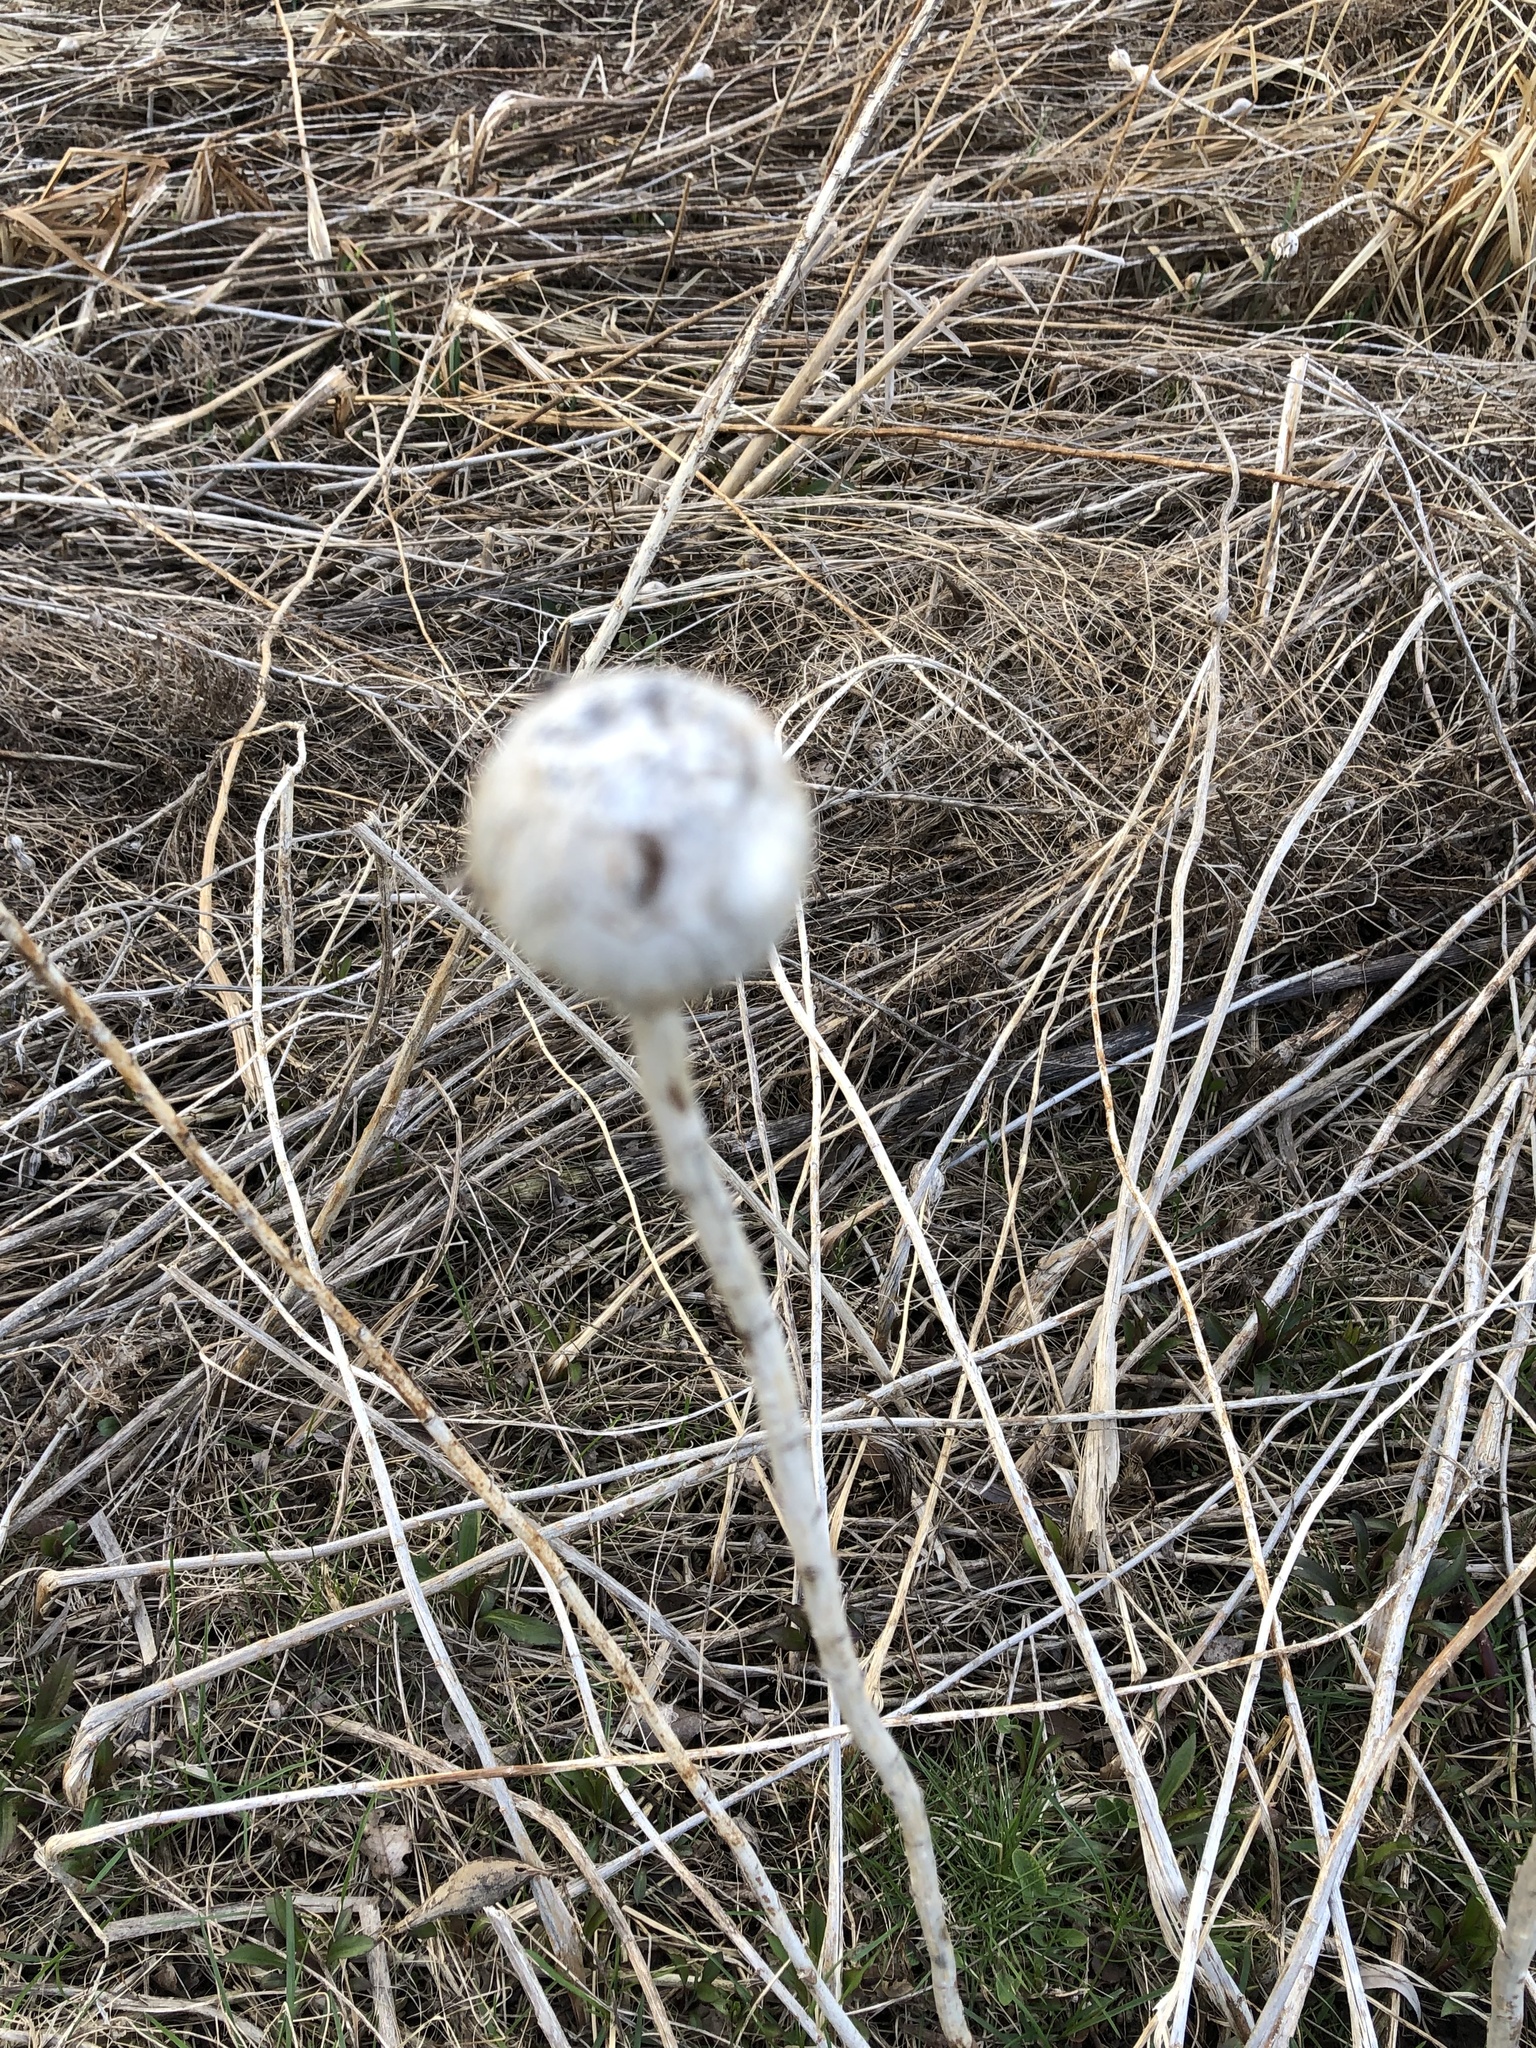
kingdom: Animalia
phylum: Arthropoda
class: Insecta
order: Diptera
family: Tephritidae
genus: Eurosta
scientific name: Eurosta solidaginis
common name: Goldenrod gall fly
